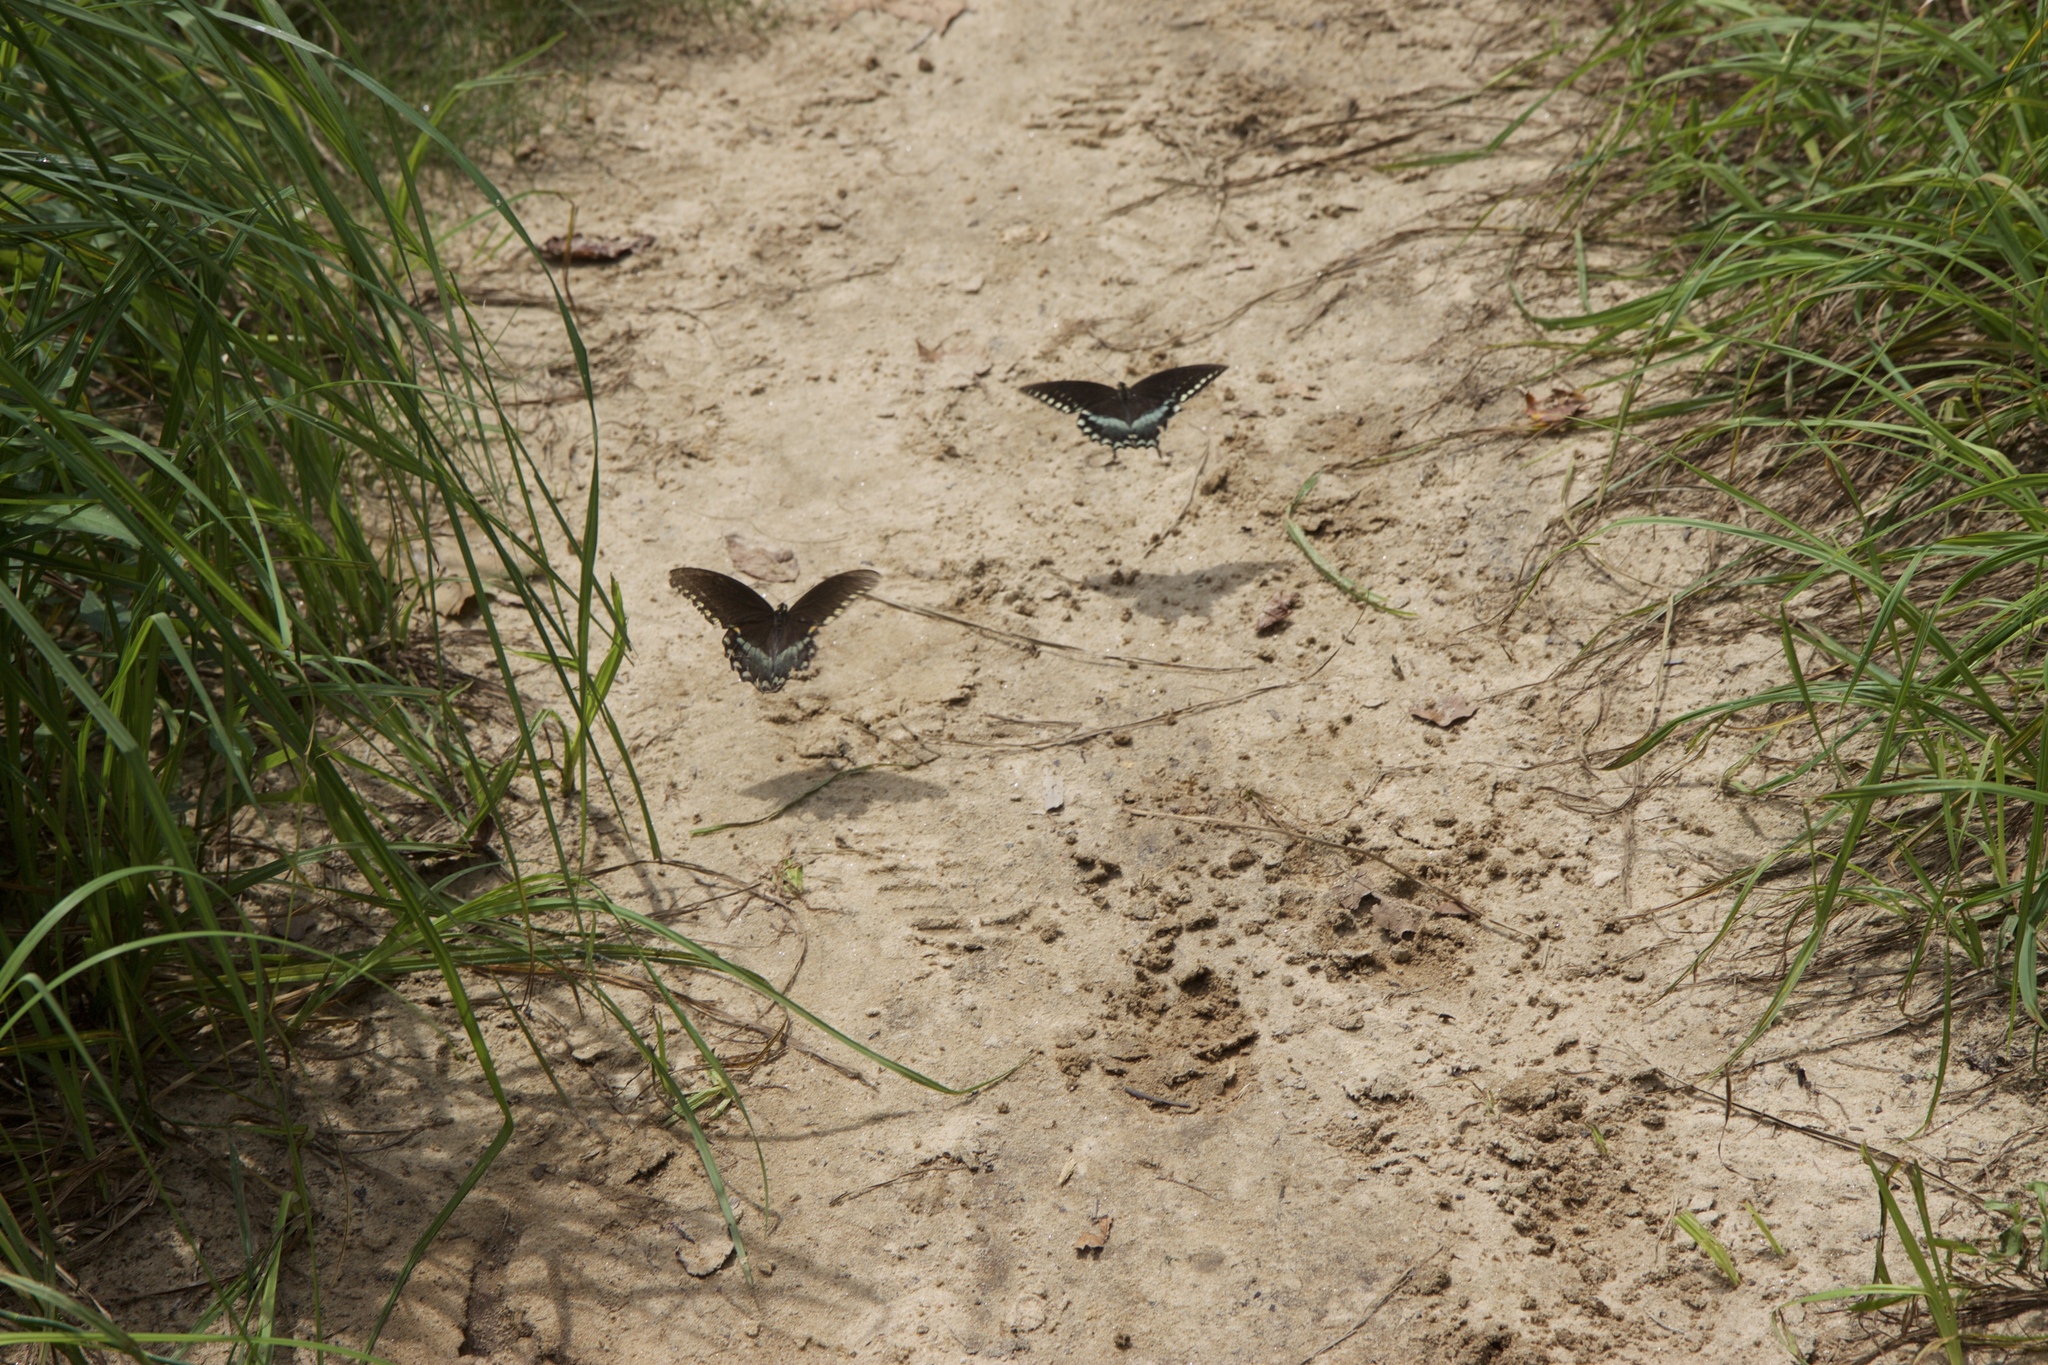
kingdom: Animalia
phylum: Arthropoda
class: Insecta
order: Lepidoptera
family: Papilionidae
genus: Papilio
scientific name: Papilio troilus
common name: Spicebush swallowtail
